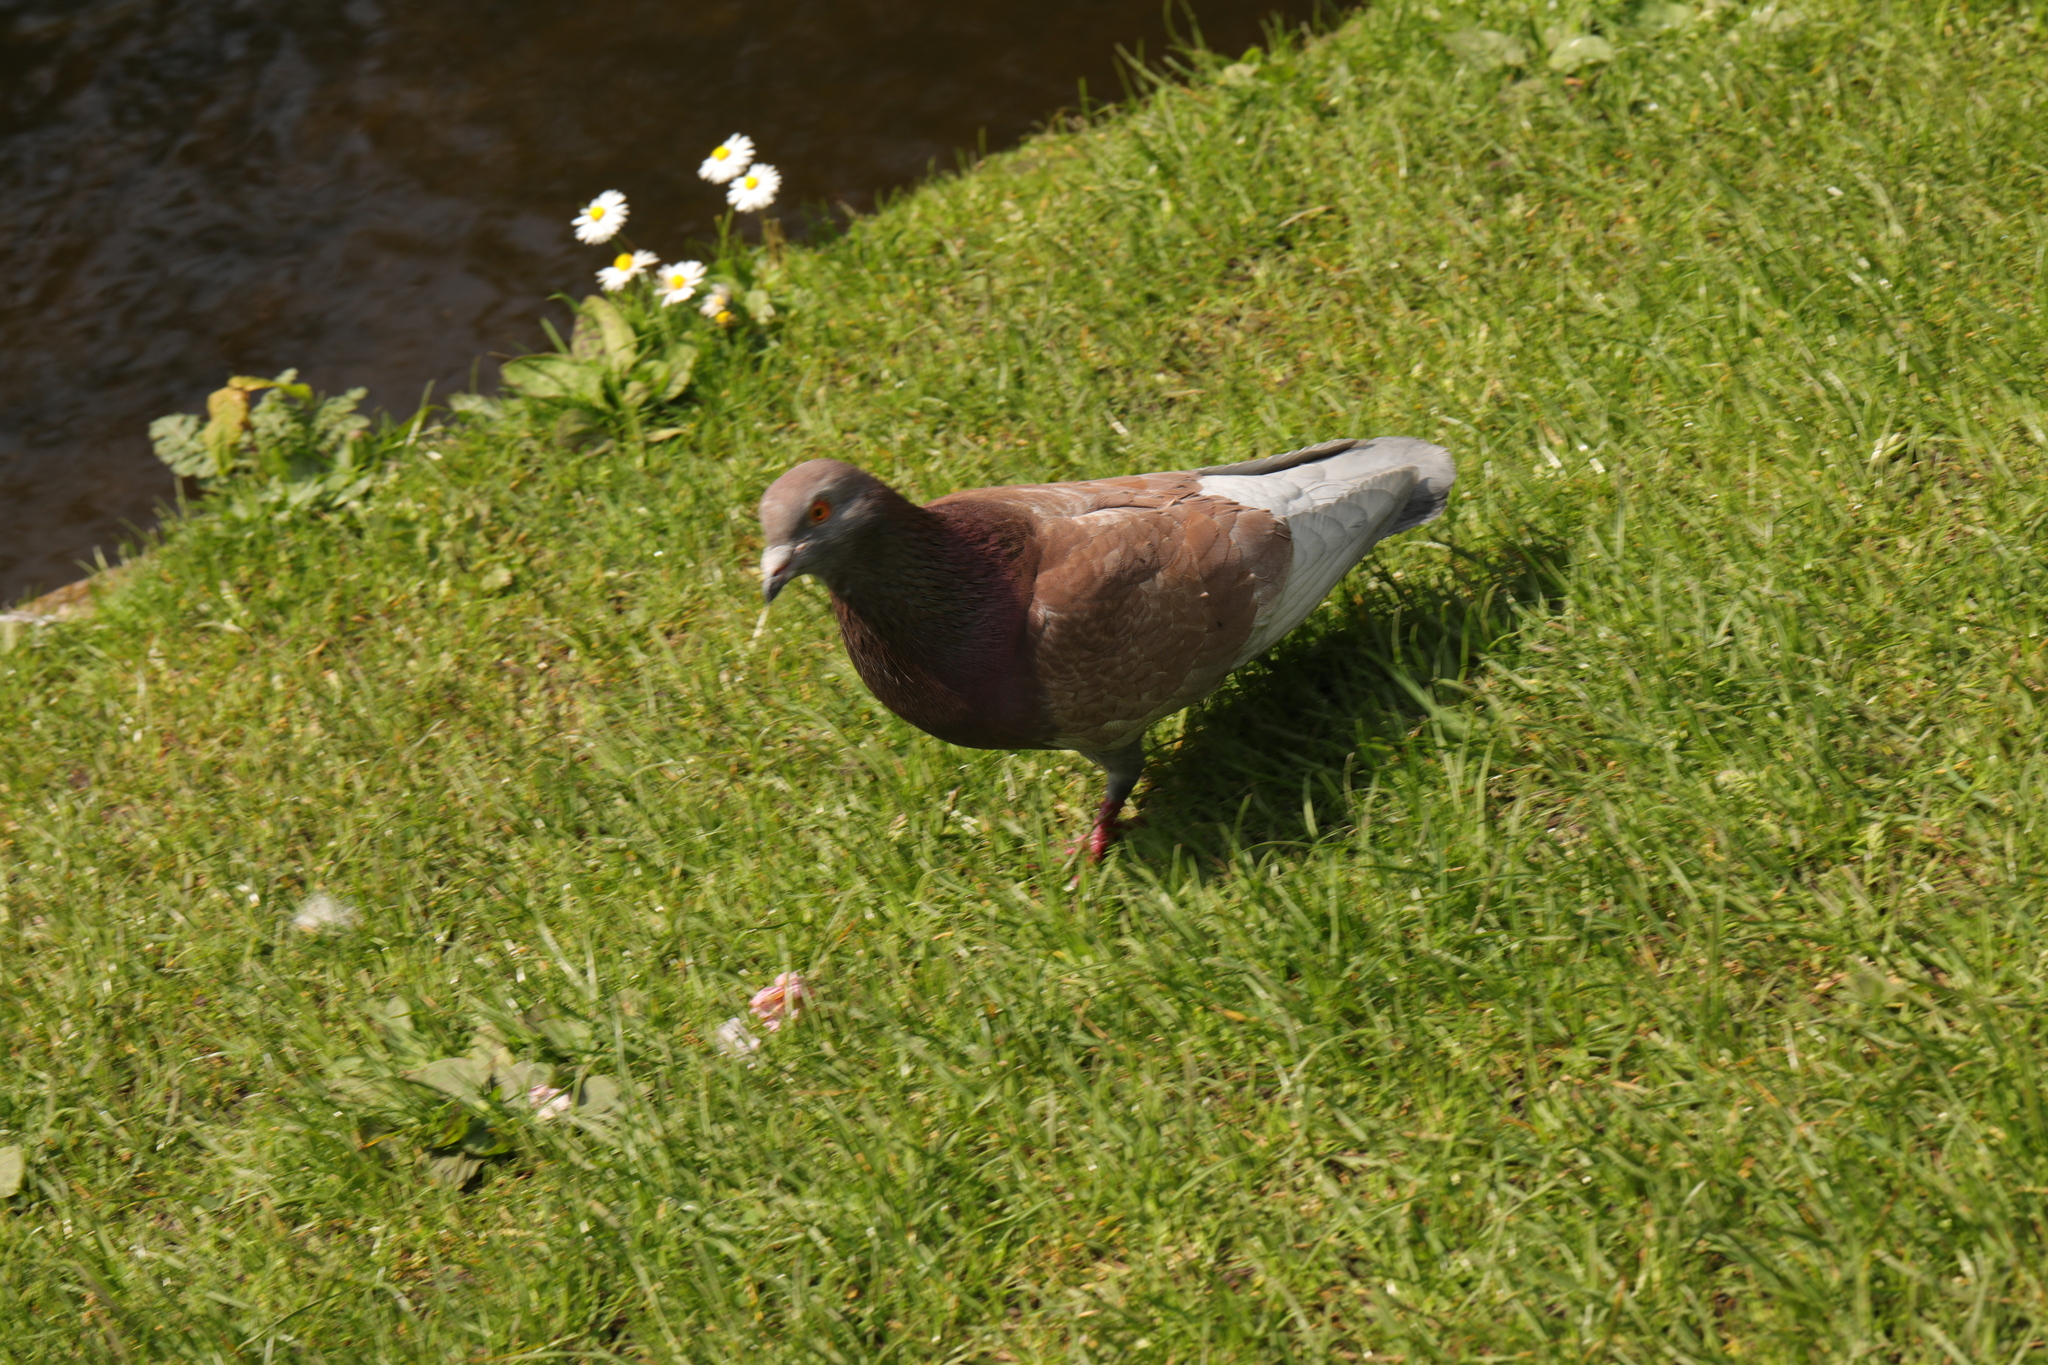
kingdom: Animalia
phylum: Chordata
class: Aves
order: Columbiformes
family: Columbidae
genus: Columba
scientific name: Columba livia
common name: Rock pigeon
